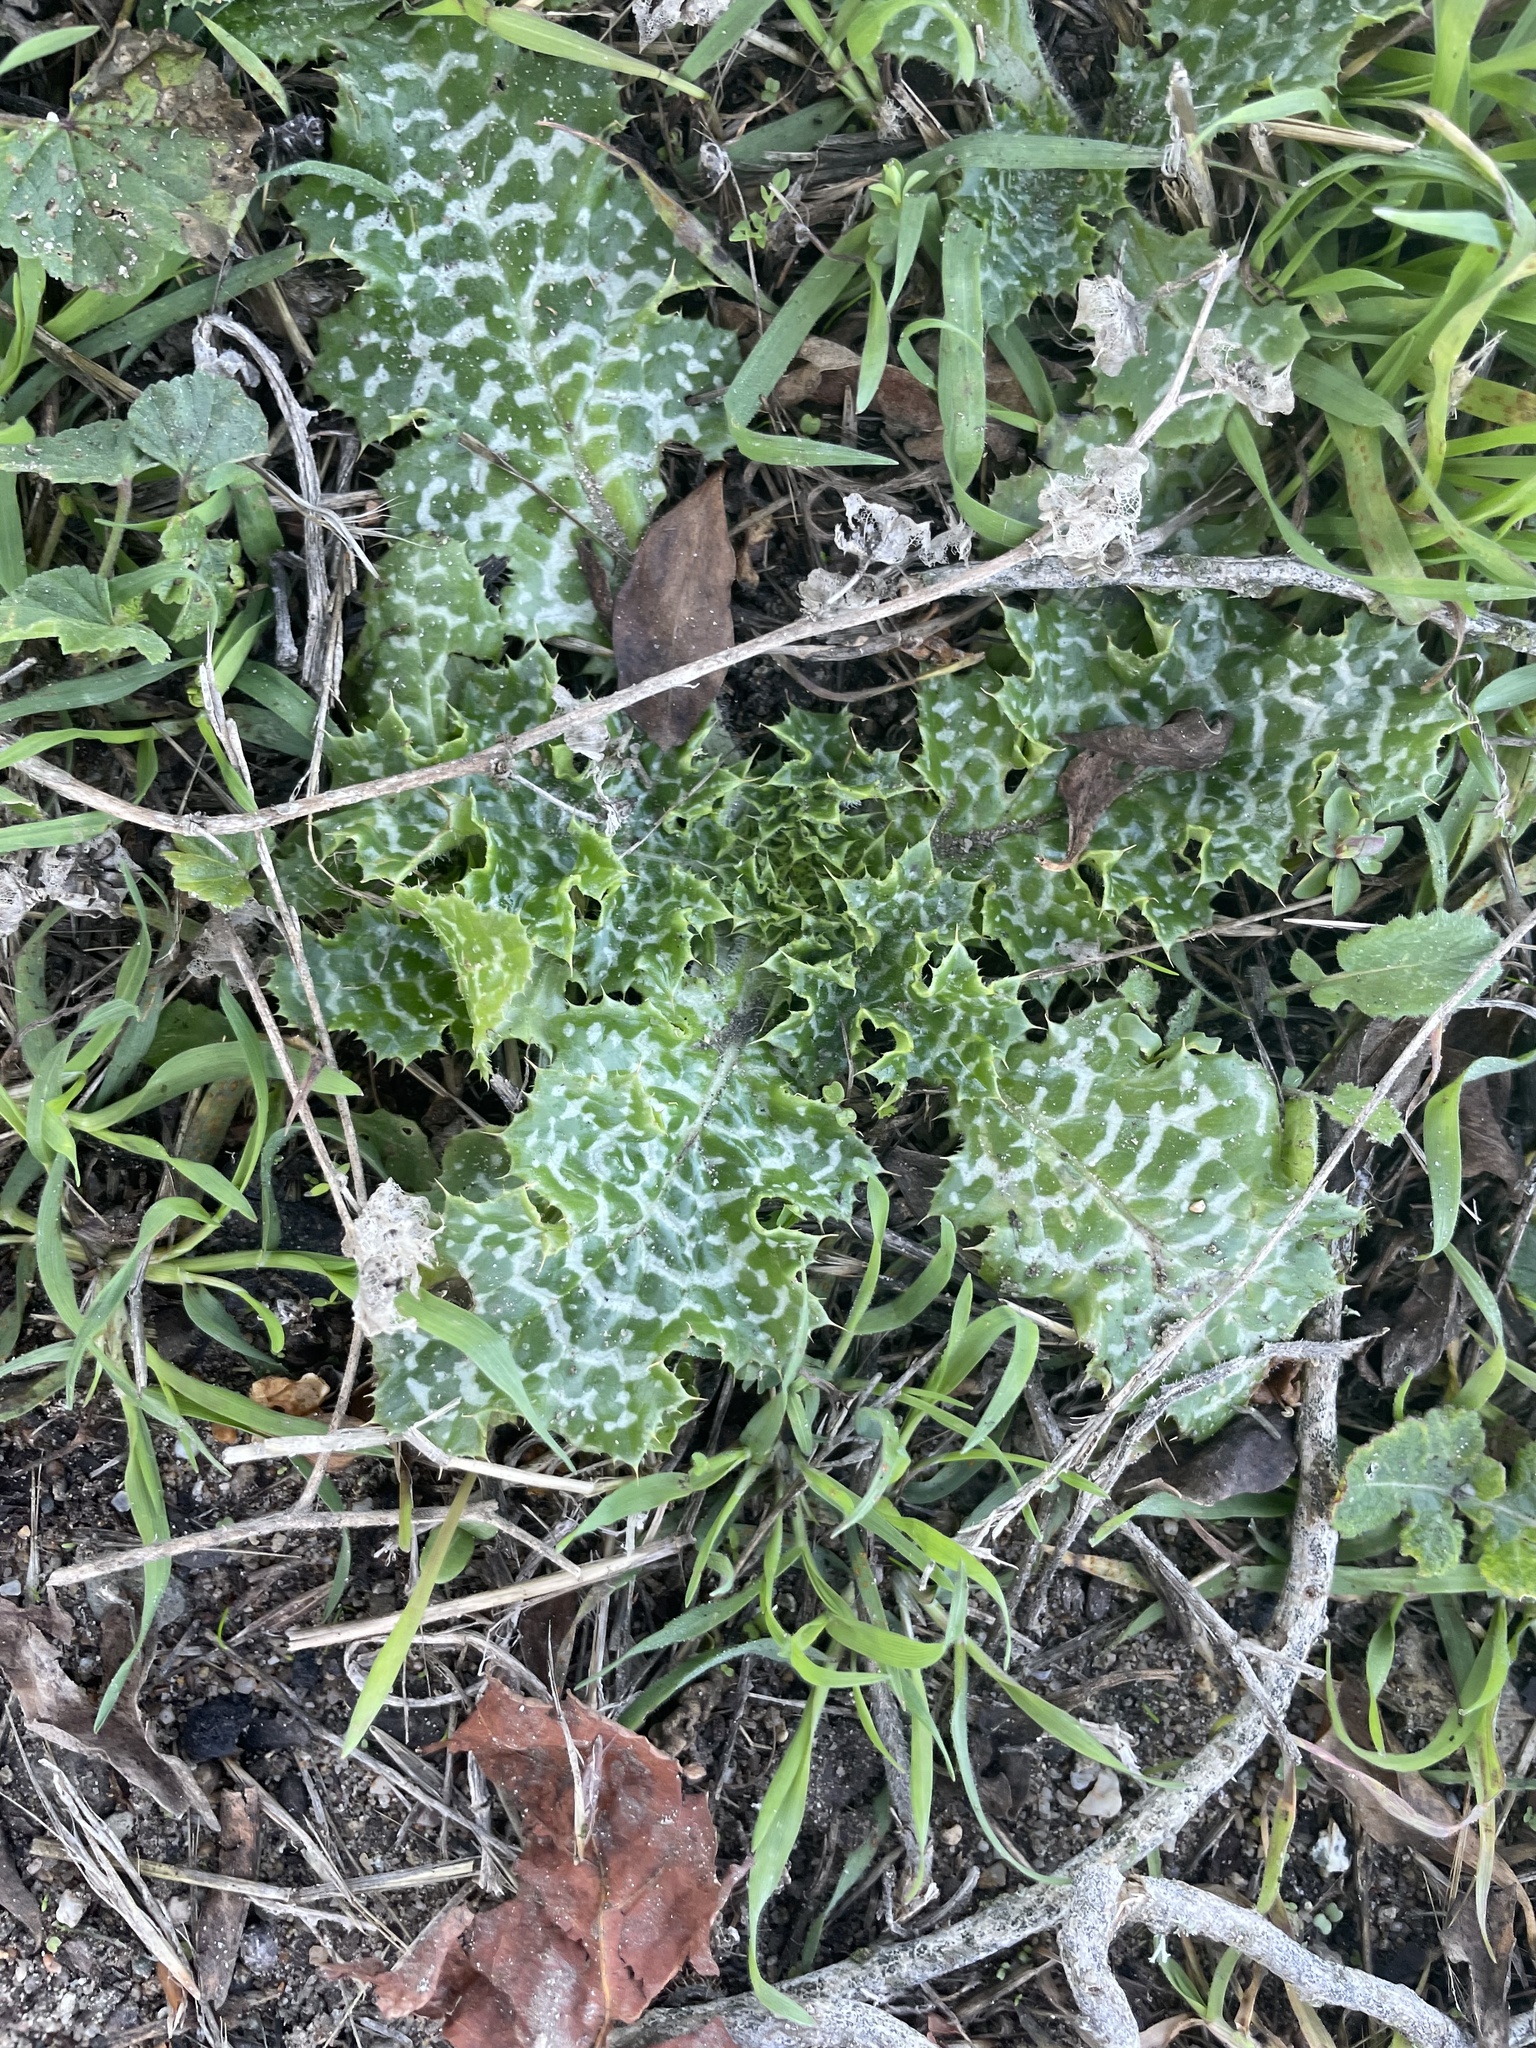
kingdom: Plantae
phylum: Tracheophyta
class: Magnoliopsida
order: Asterales
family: Asteraceae
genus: Silybum
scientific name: Silybum marianum
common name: Milk thistle
